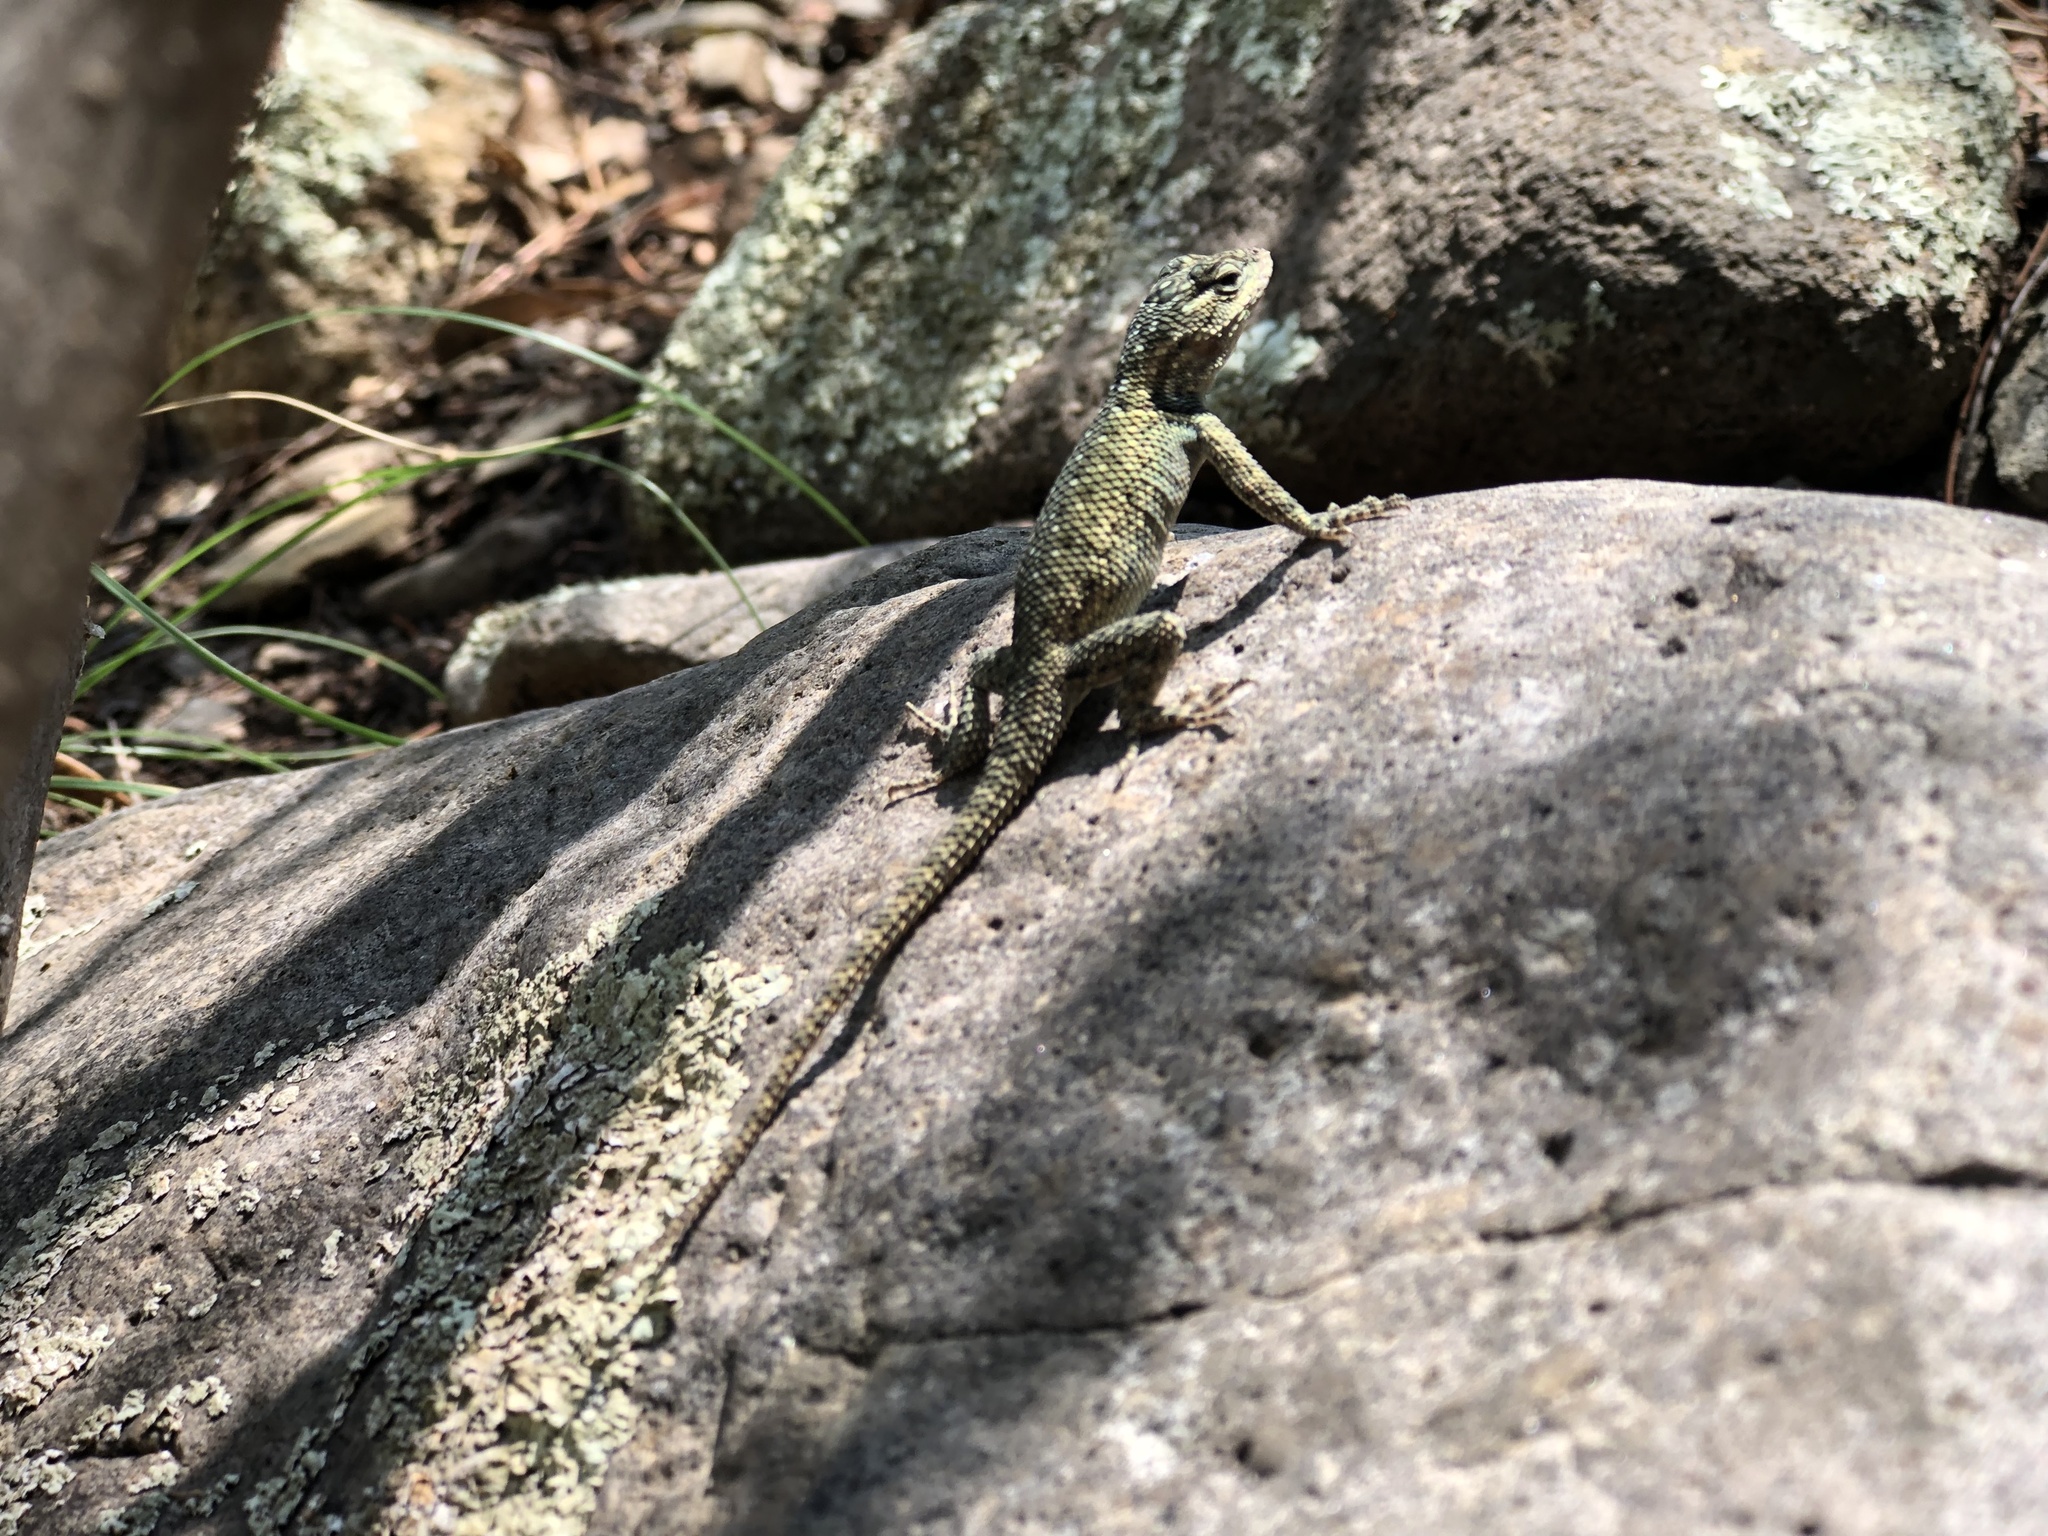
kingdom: Animalia
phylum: Chordata
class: Squamata
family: Phrynosomatidae
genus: Sceloporus
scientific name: Sceloporus jarrovii
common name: Yarrow's spiny lizard
